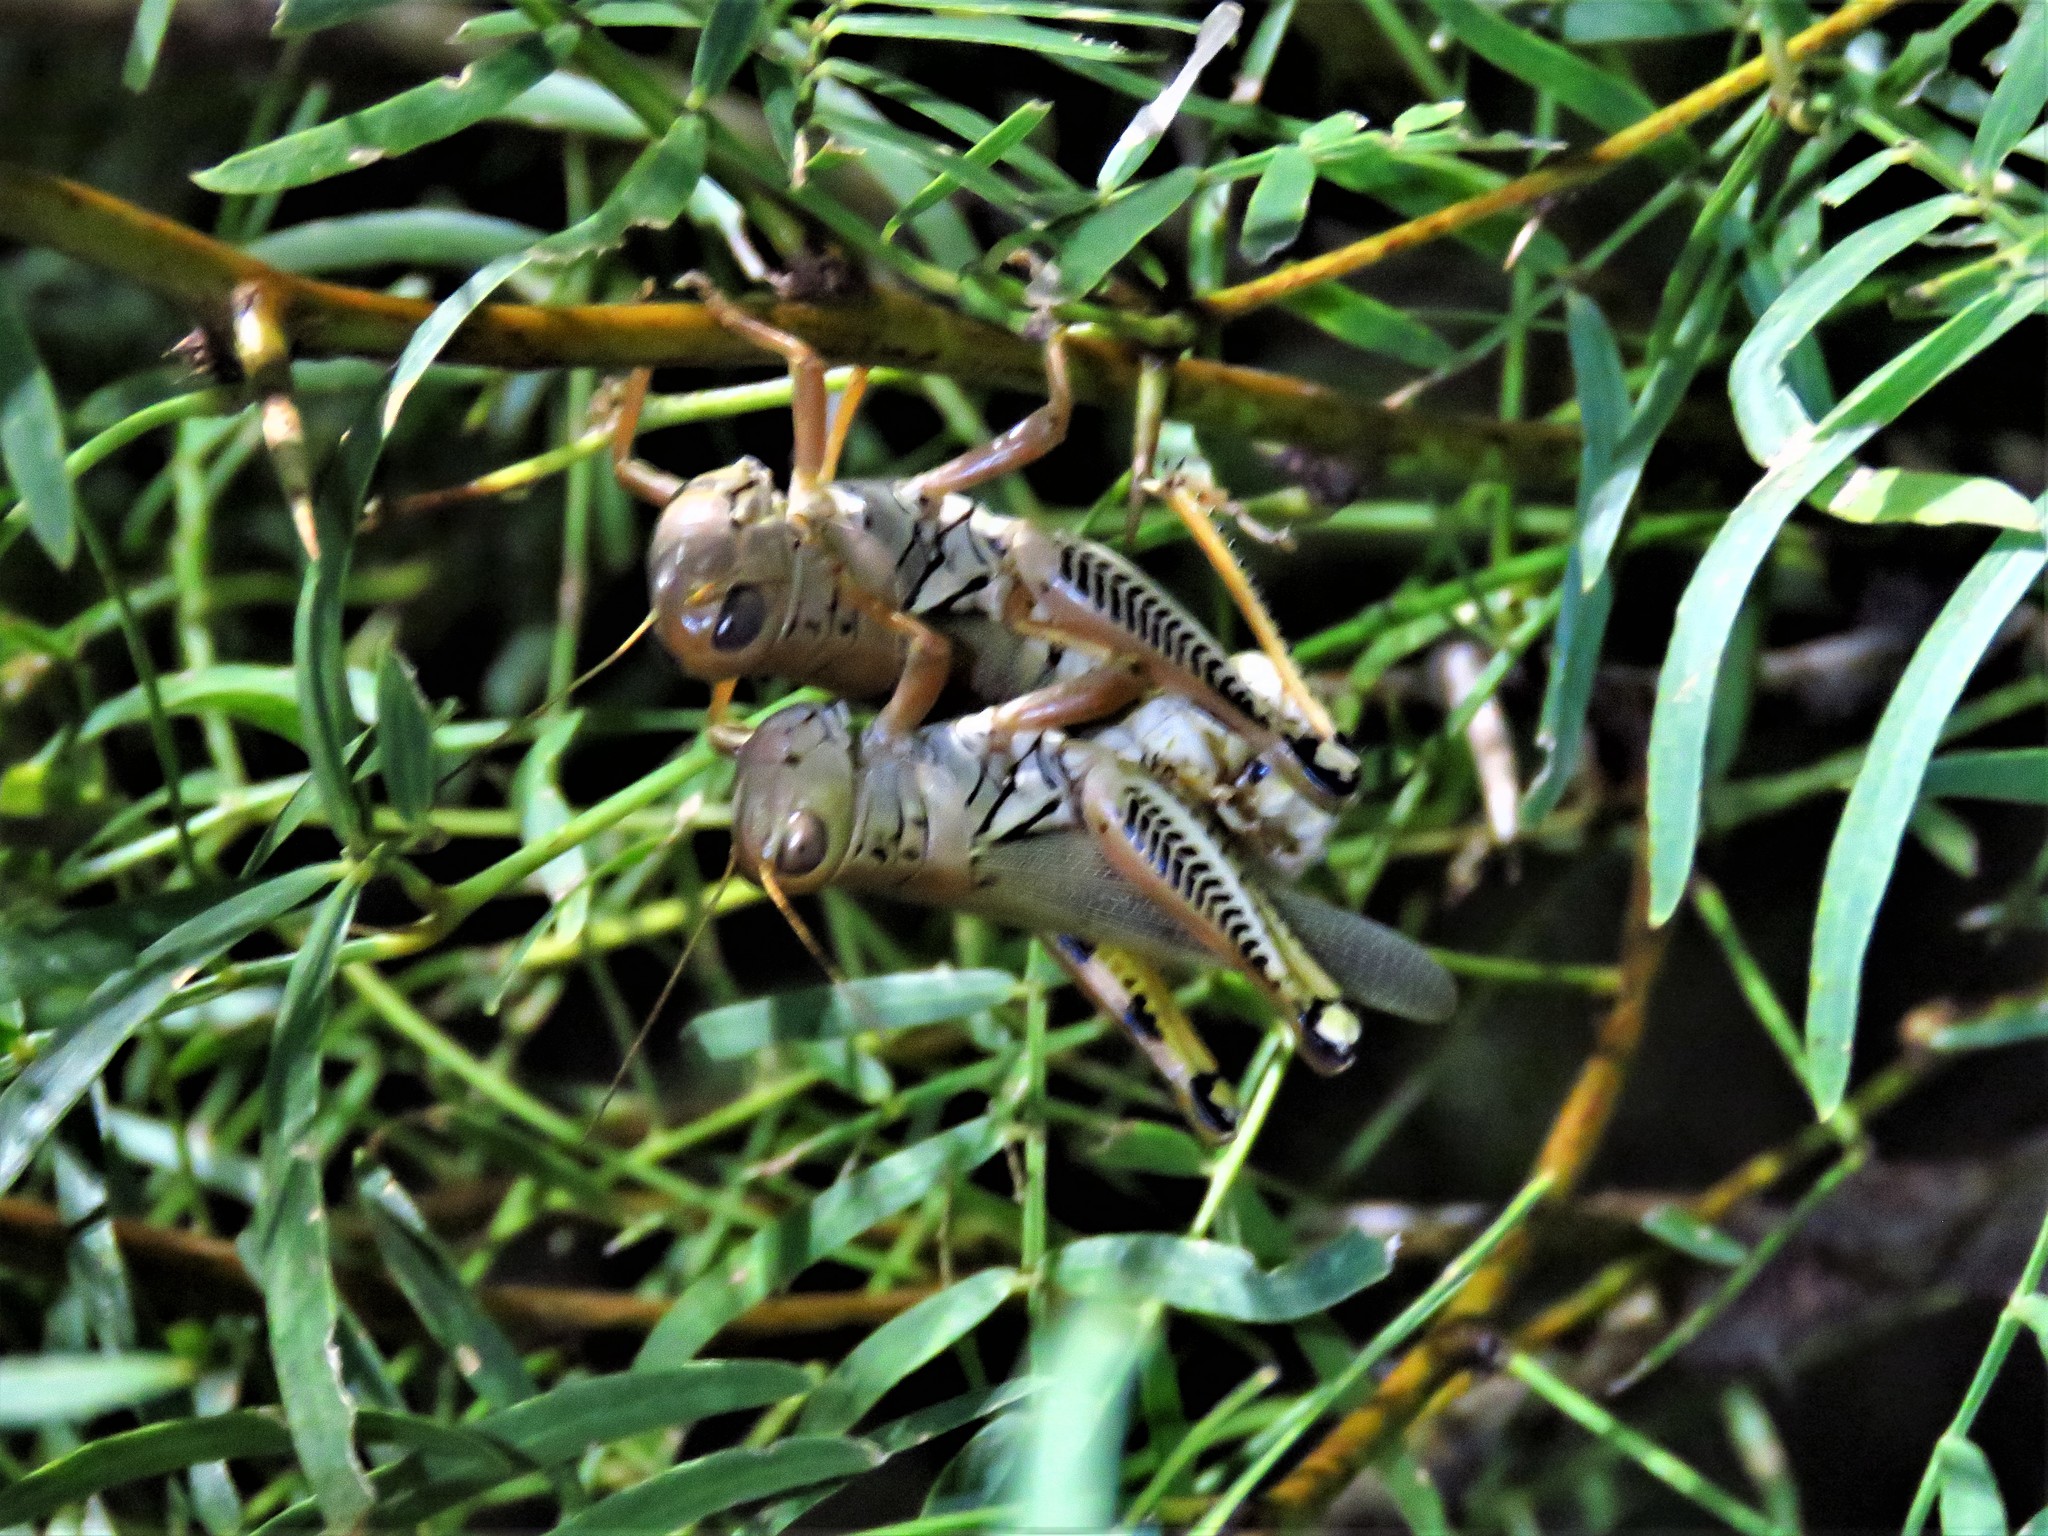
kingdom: Animalia
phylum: Arthropoda
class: Insecta
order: Orthoptera
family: Acrididae
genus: Melanoplus
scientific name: Melanoplus differentialis
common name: Differential grasshopper
